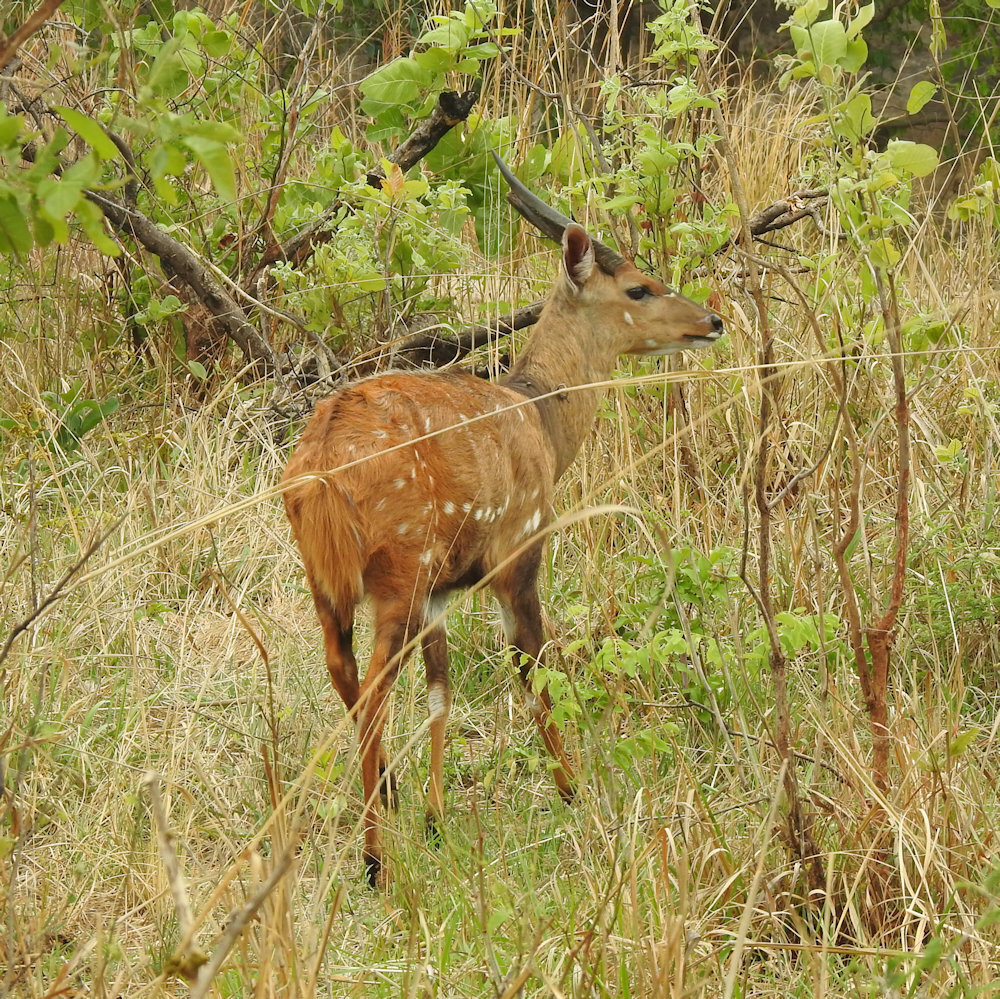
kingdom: Animalia
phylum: Chordata
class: Mammalia
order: Artiodactyla
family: Bovidae
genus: Tragelaphus
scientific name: Tragelaphus scriptus
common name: Bushbuck
